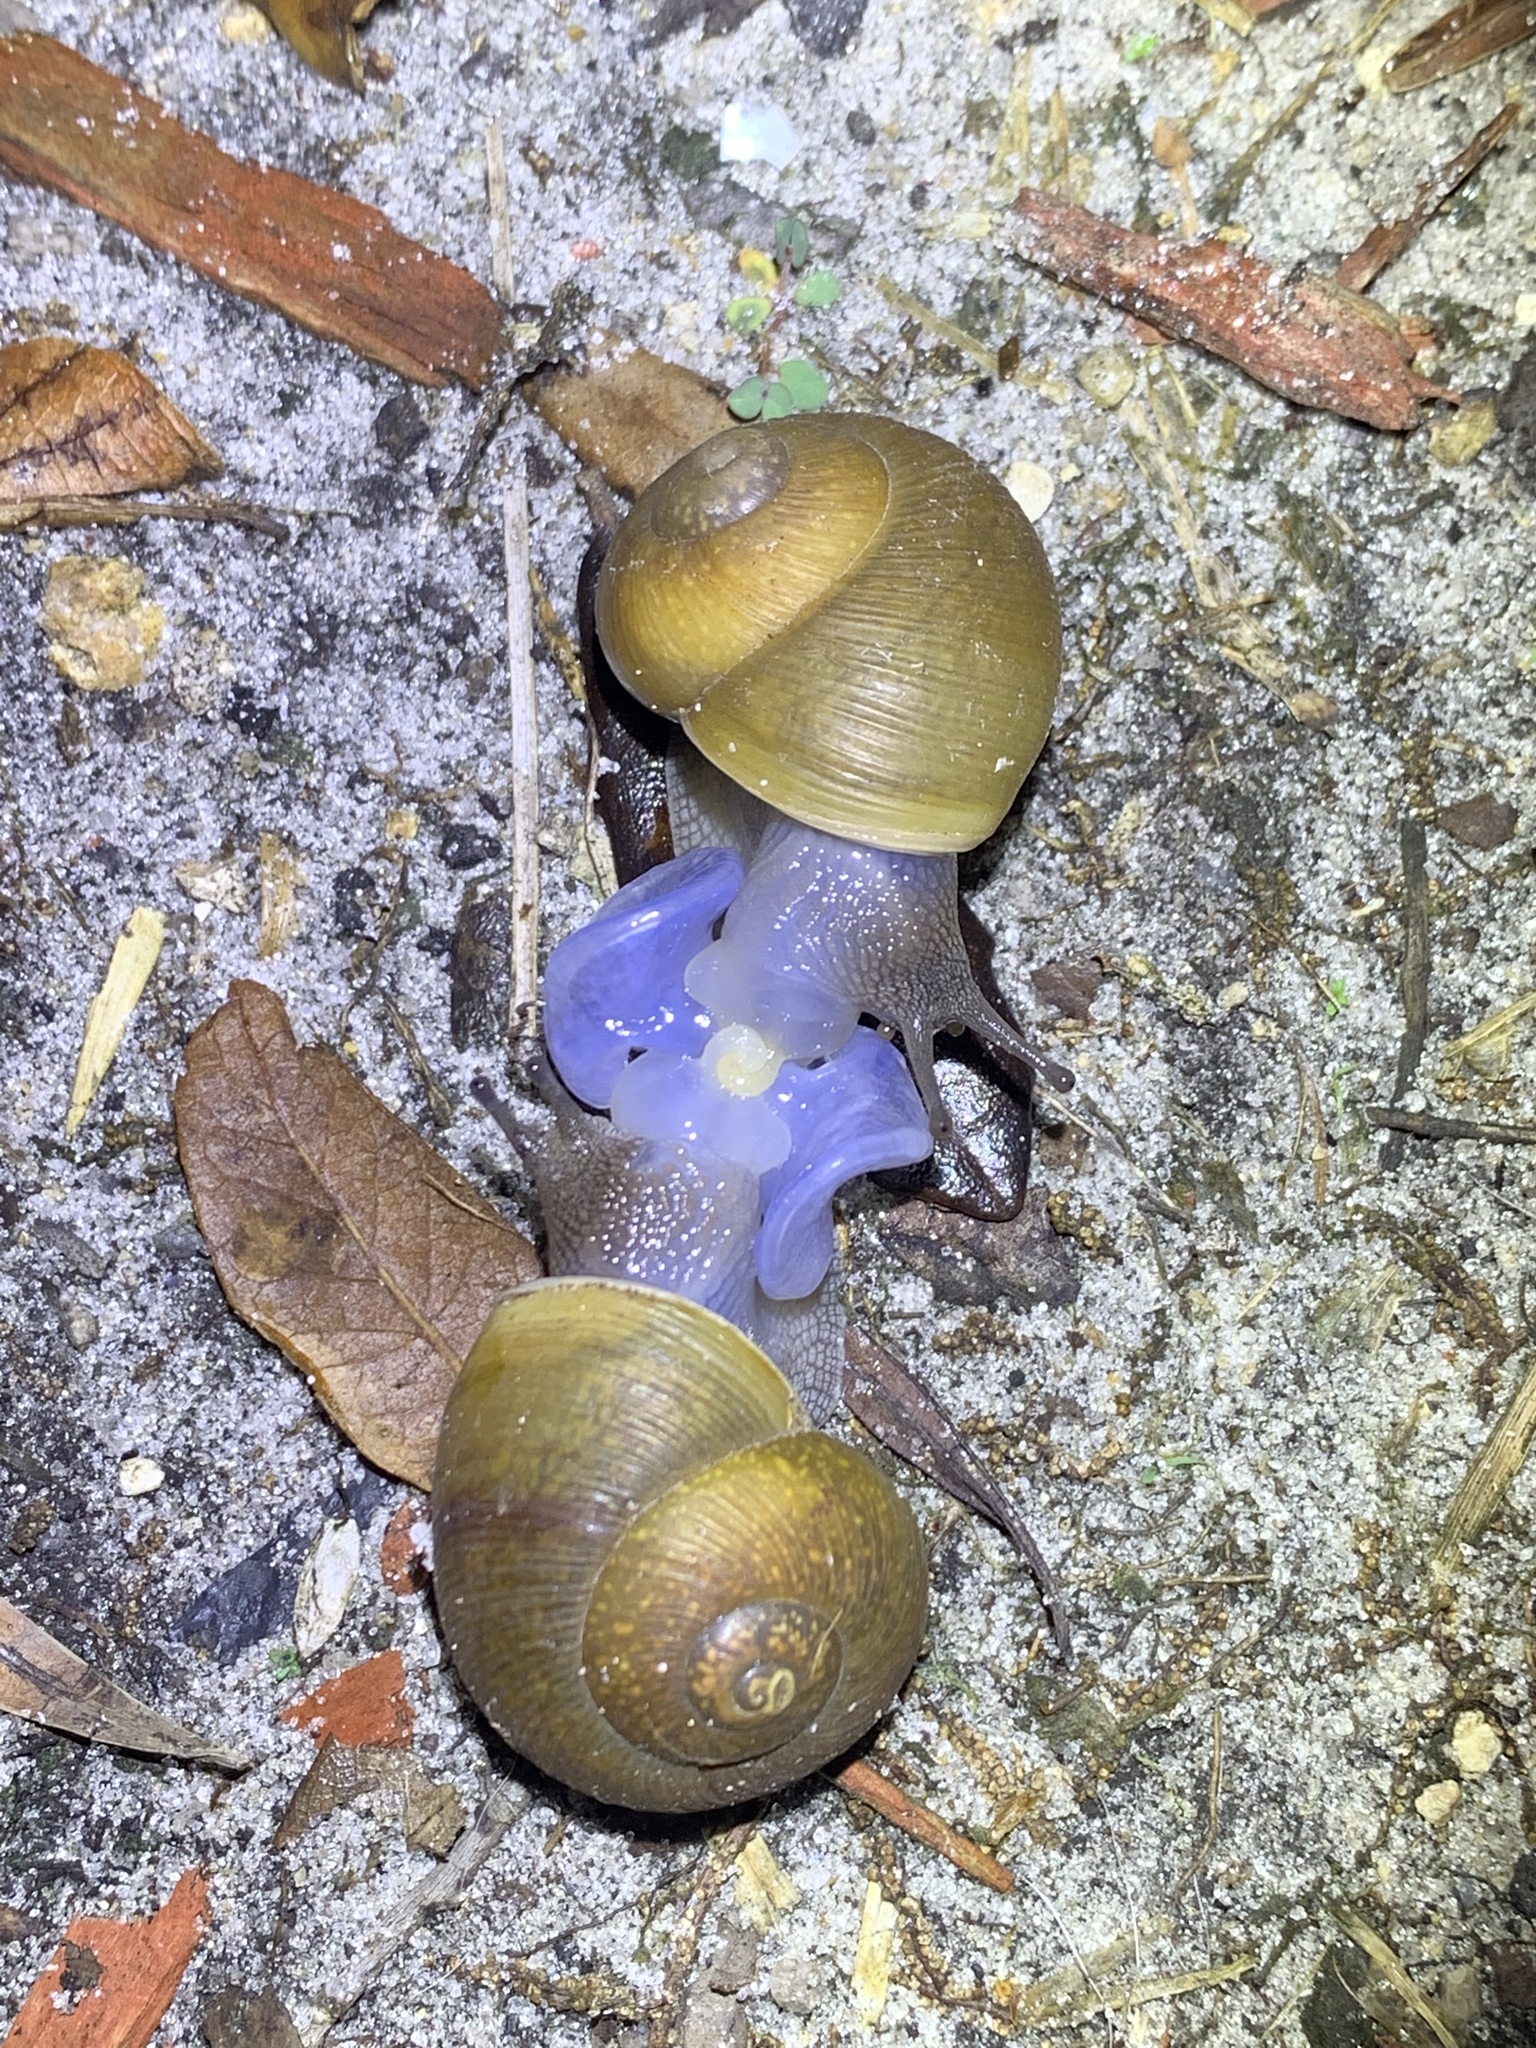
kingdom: Animalia
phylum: Mollusca
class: Gastropoda
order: Stylommatophora
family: Zachrysiidae
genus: Zachrysia
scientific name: Zachrysia provisoria
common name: Garden zachrysia
